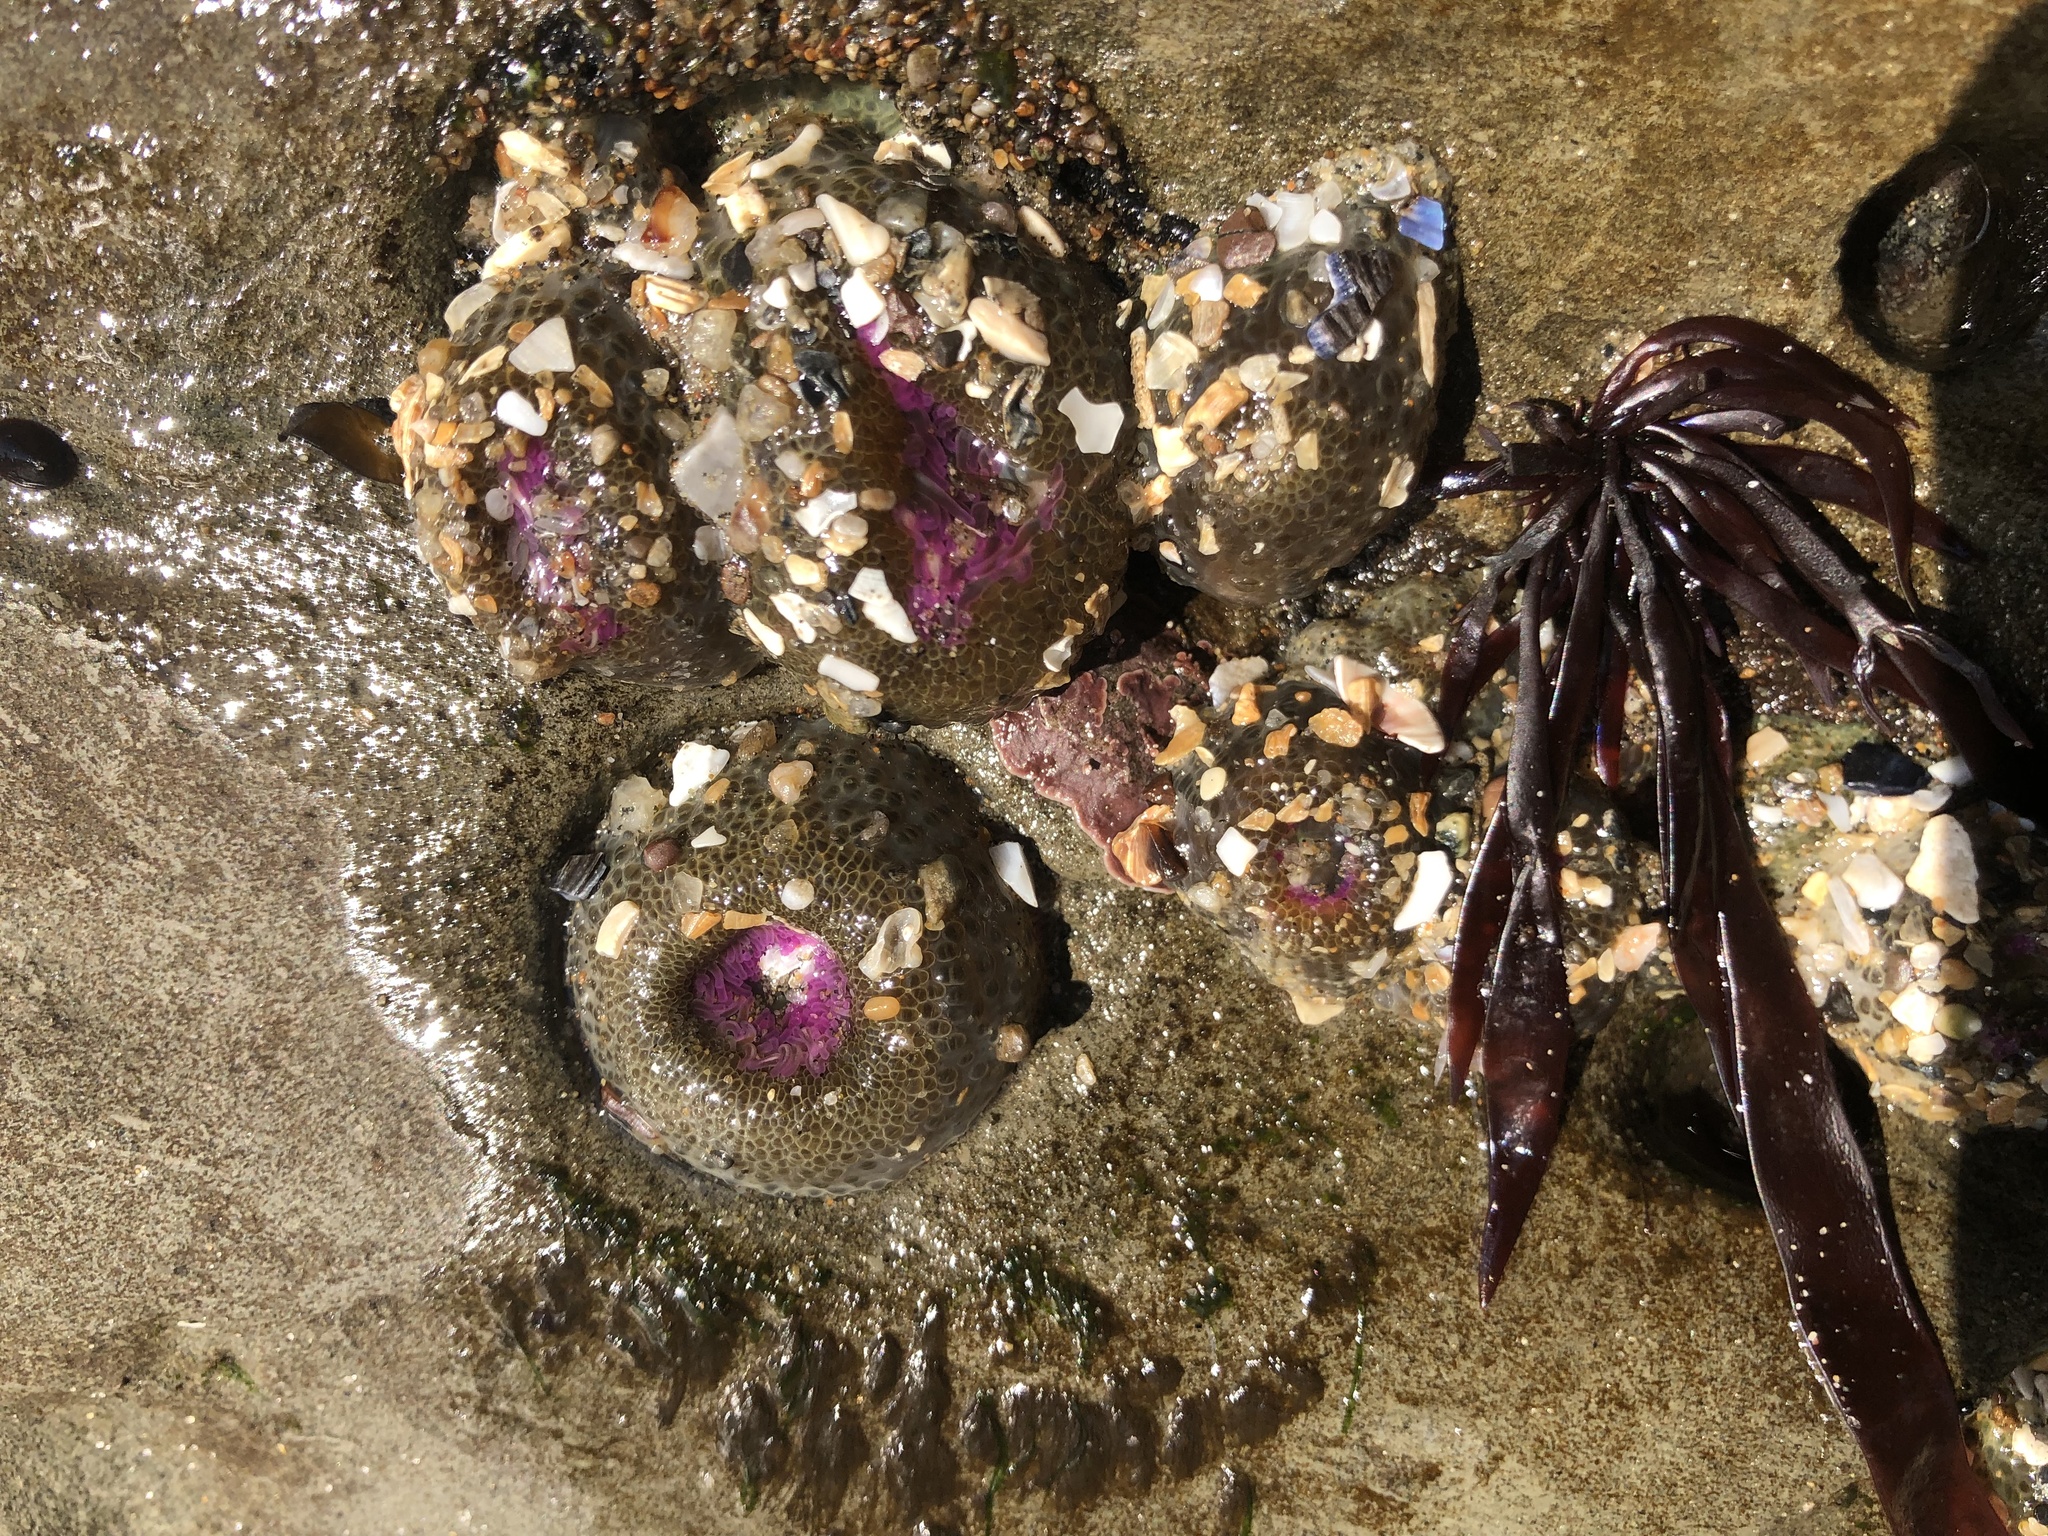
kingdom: Animalia
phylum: Cnidaria
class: Anthozoa
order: Actiniaria
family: Actiniidae
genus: Anthopleura
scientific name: Anthopleura elegantissima
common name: Clonal anemone
